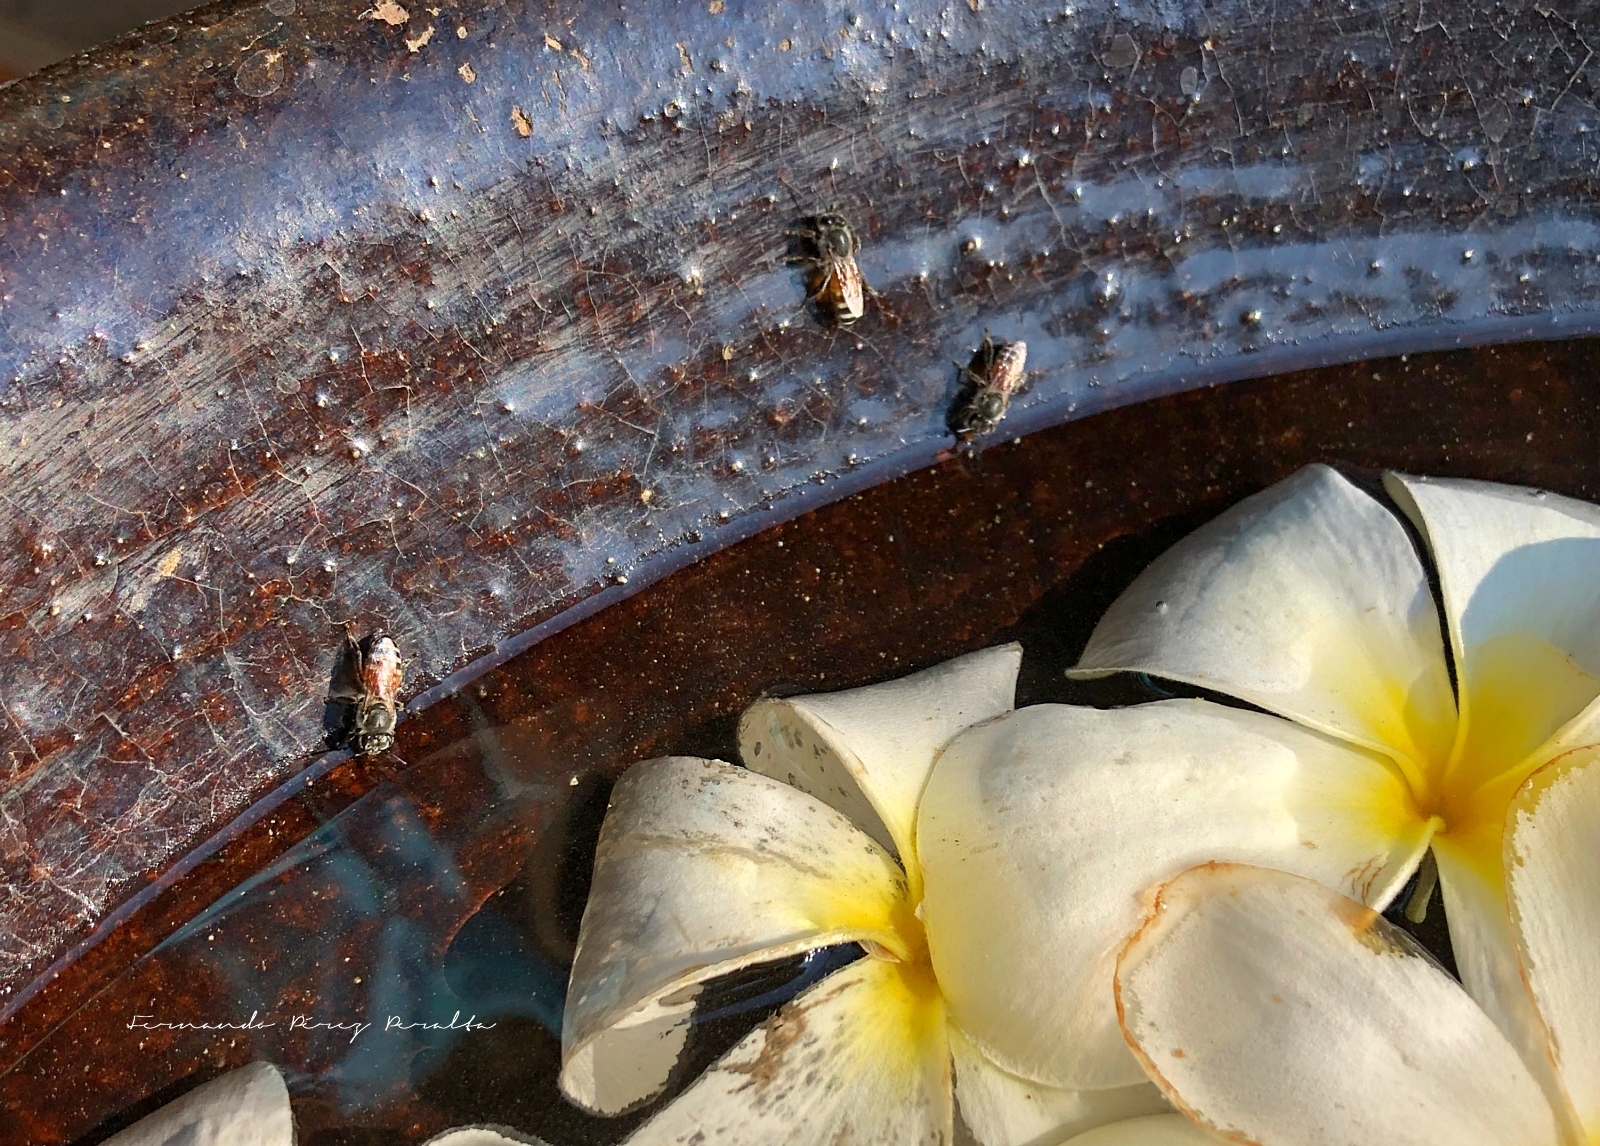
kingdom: Animalia
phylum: Arthropoda
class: Insecta
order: Hymenoptera
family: Apidae
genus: Apis
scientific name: Apis florea
